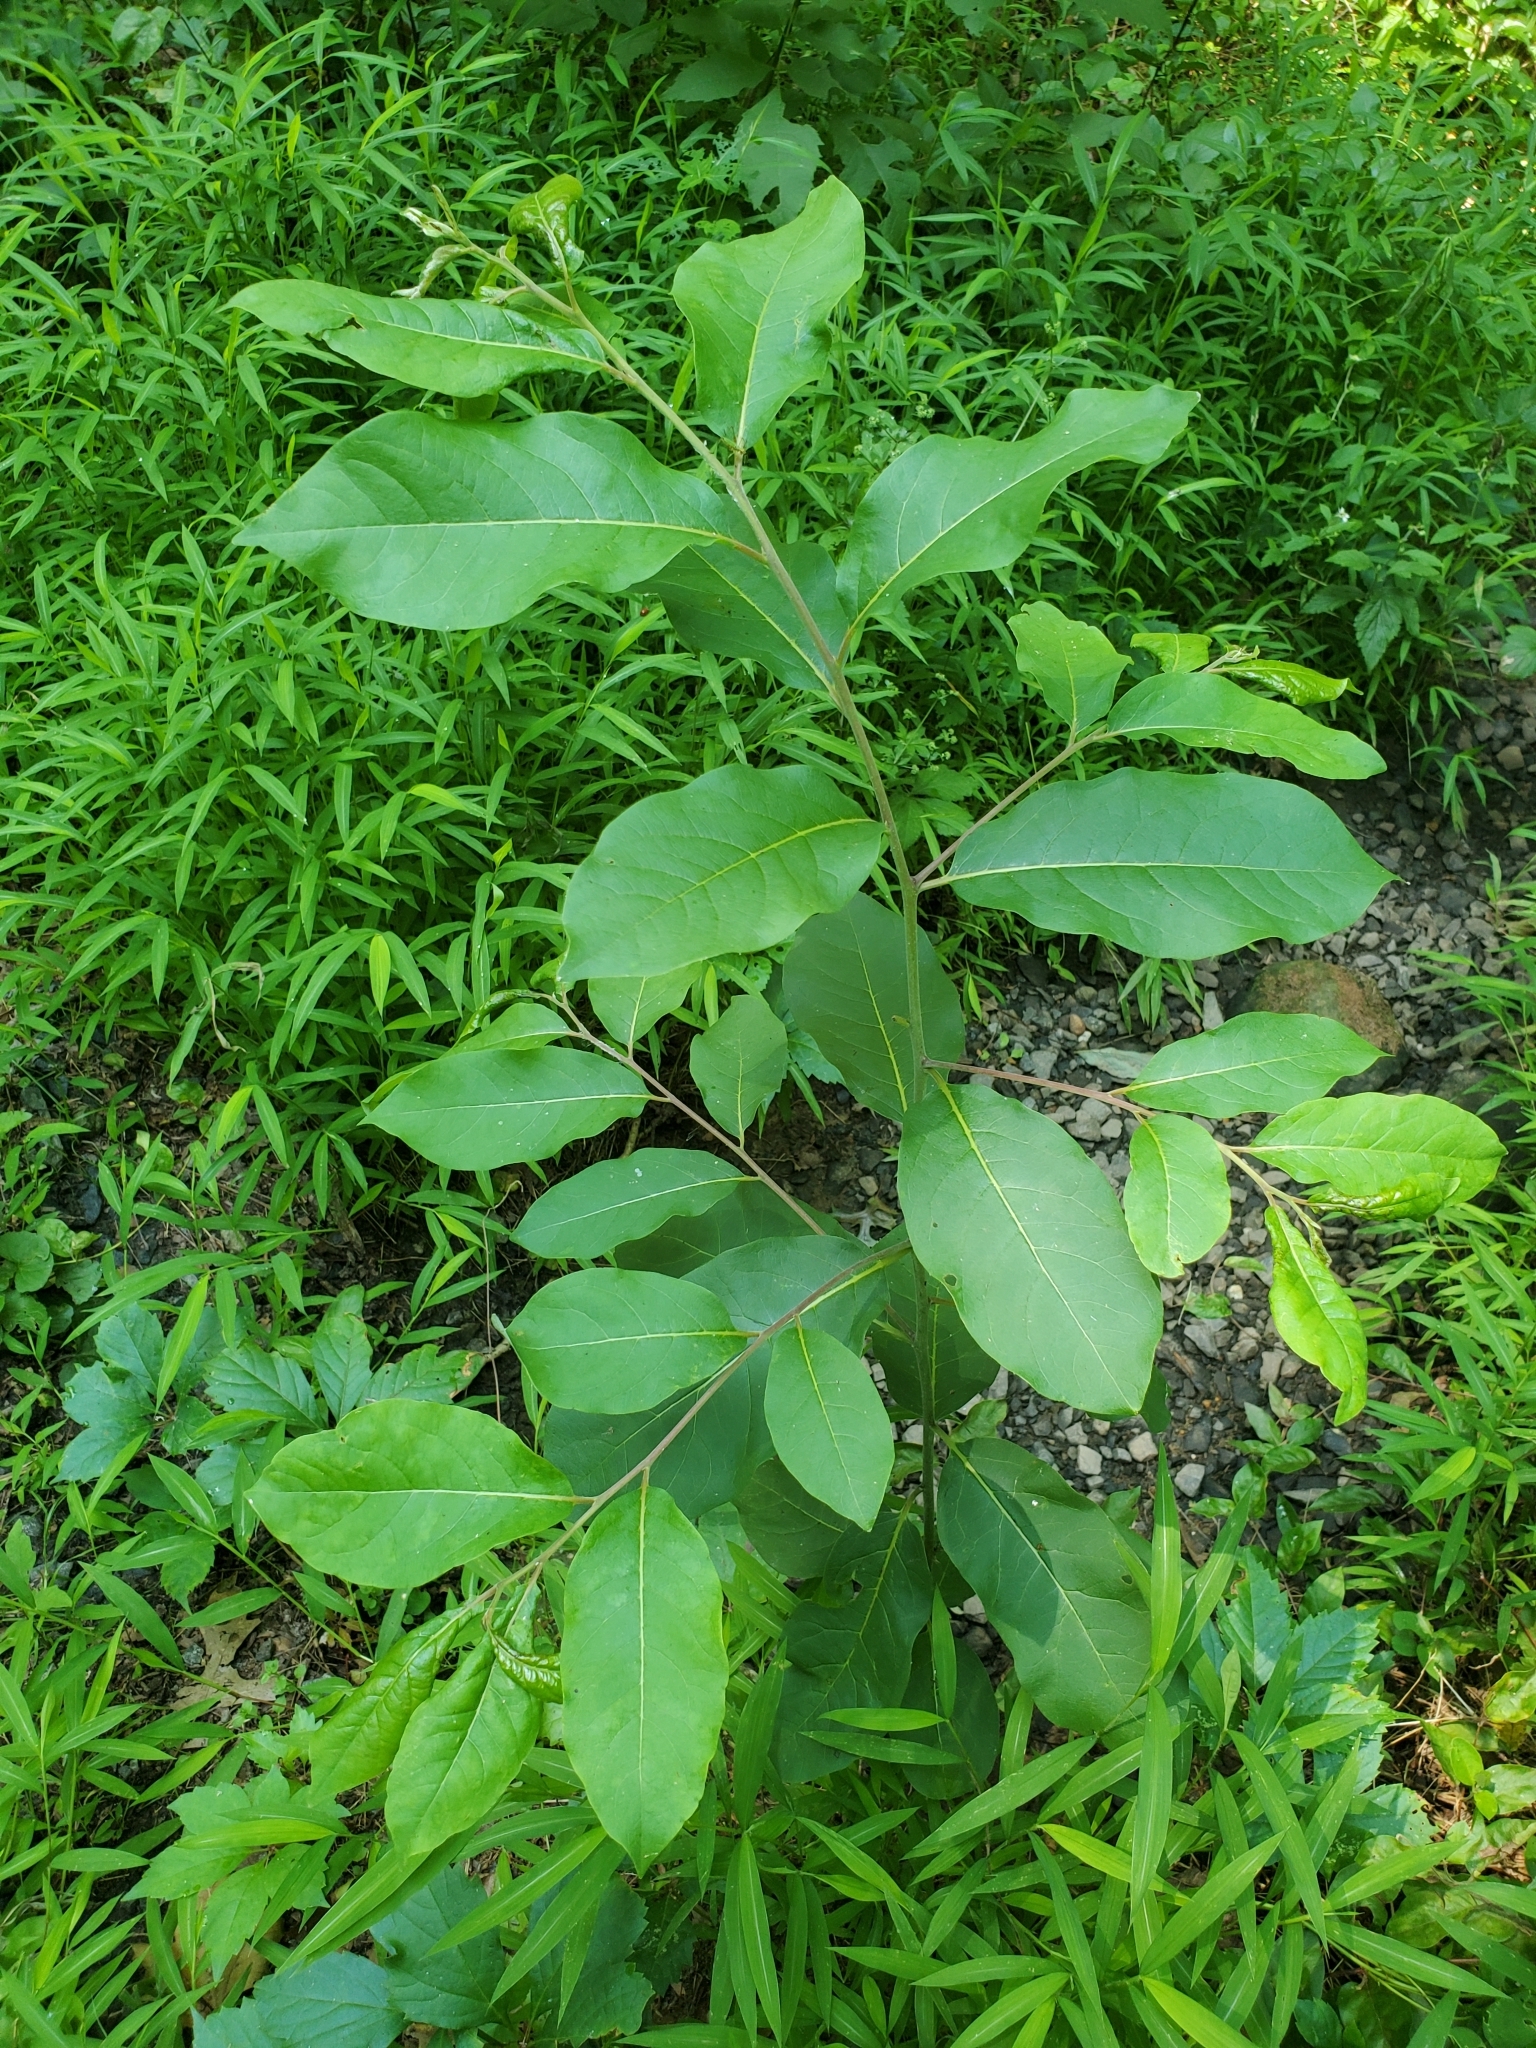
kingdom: Plantae
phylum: Tracheophyta
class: Magnoliopsida
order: Ericales
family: Ebenaceae
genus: Diospyros
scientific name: Diospyros virginiana
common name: Persimmon
